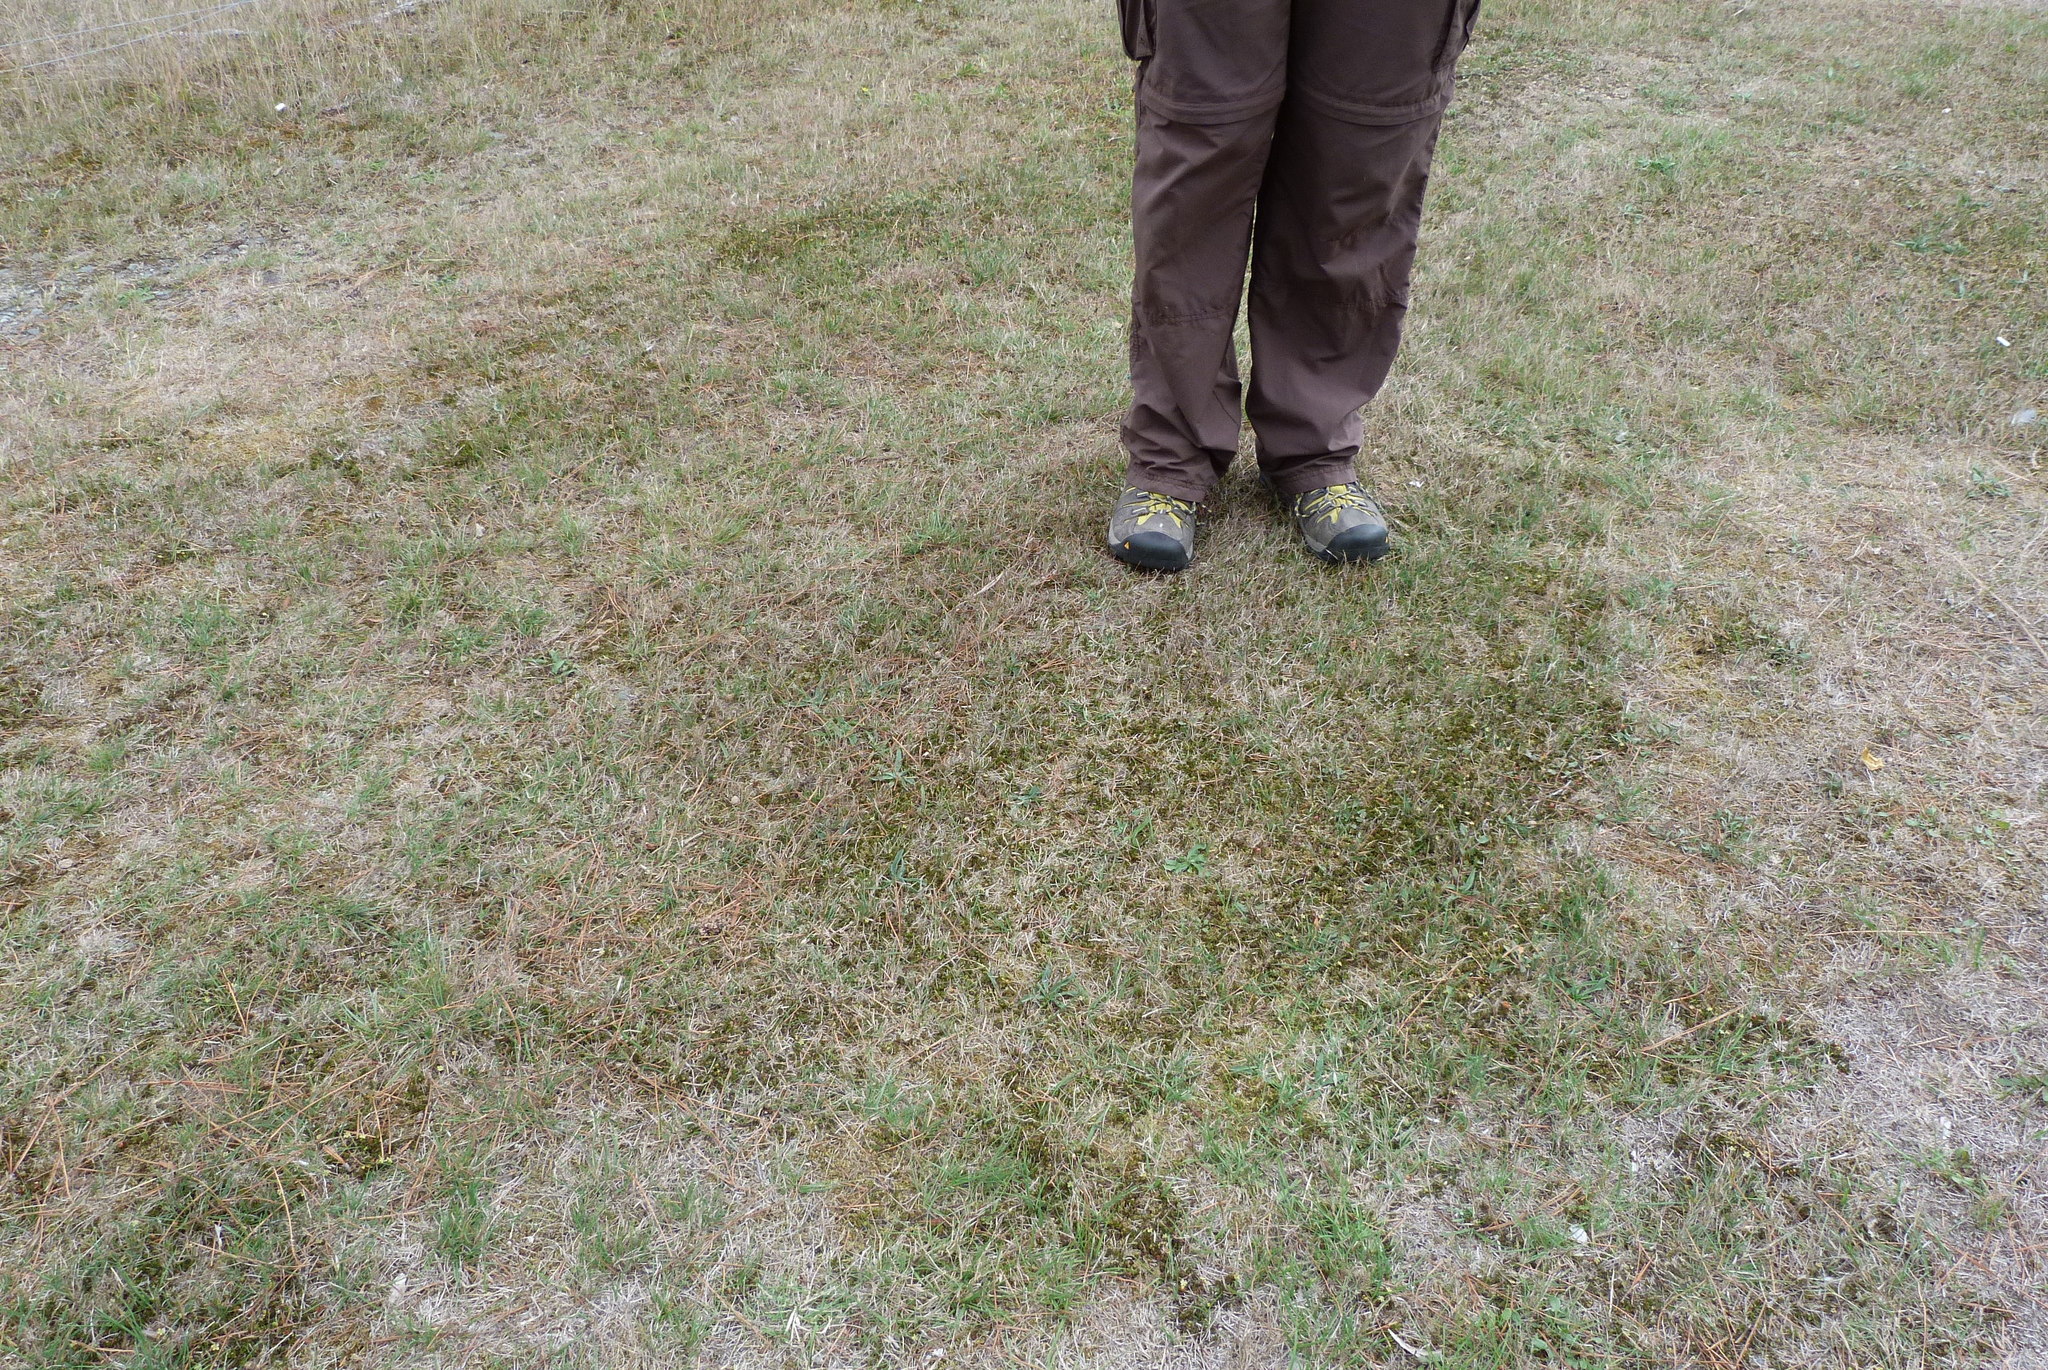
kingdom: Plantae
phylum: Tracheophyta
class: Magnoliopsida
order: Caryophyllales
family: Polygonaceae
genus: Muehlenbeckia
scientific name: Muehlenbeckia axillaris
